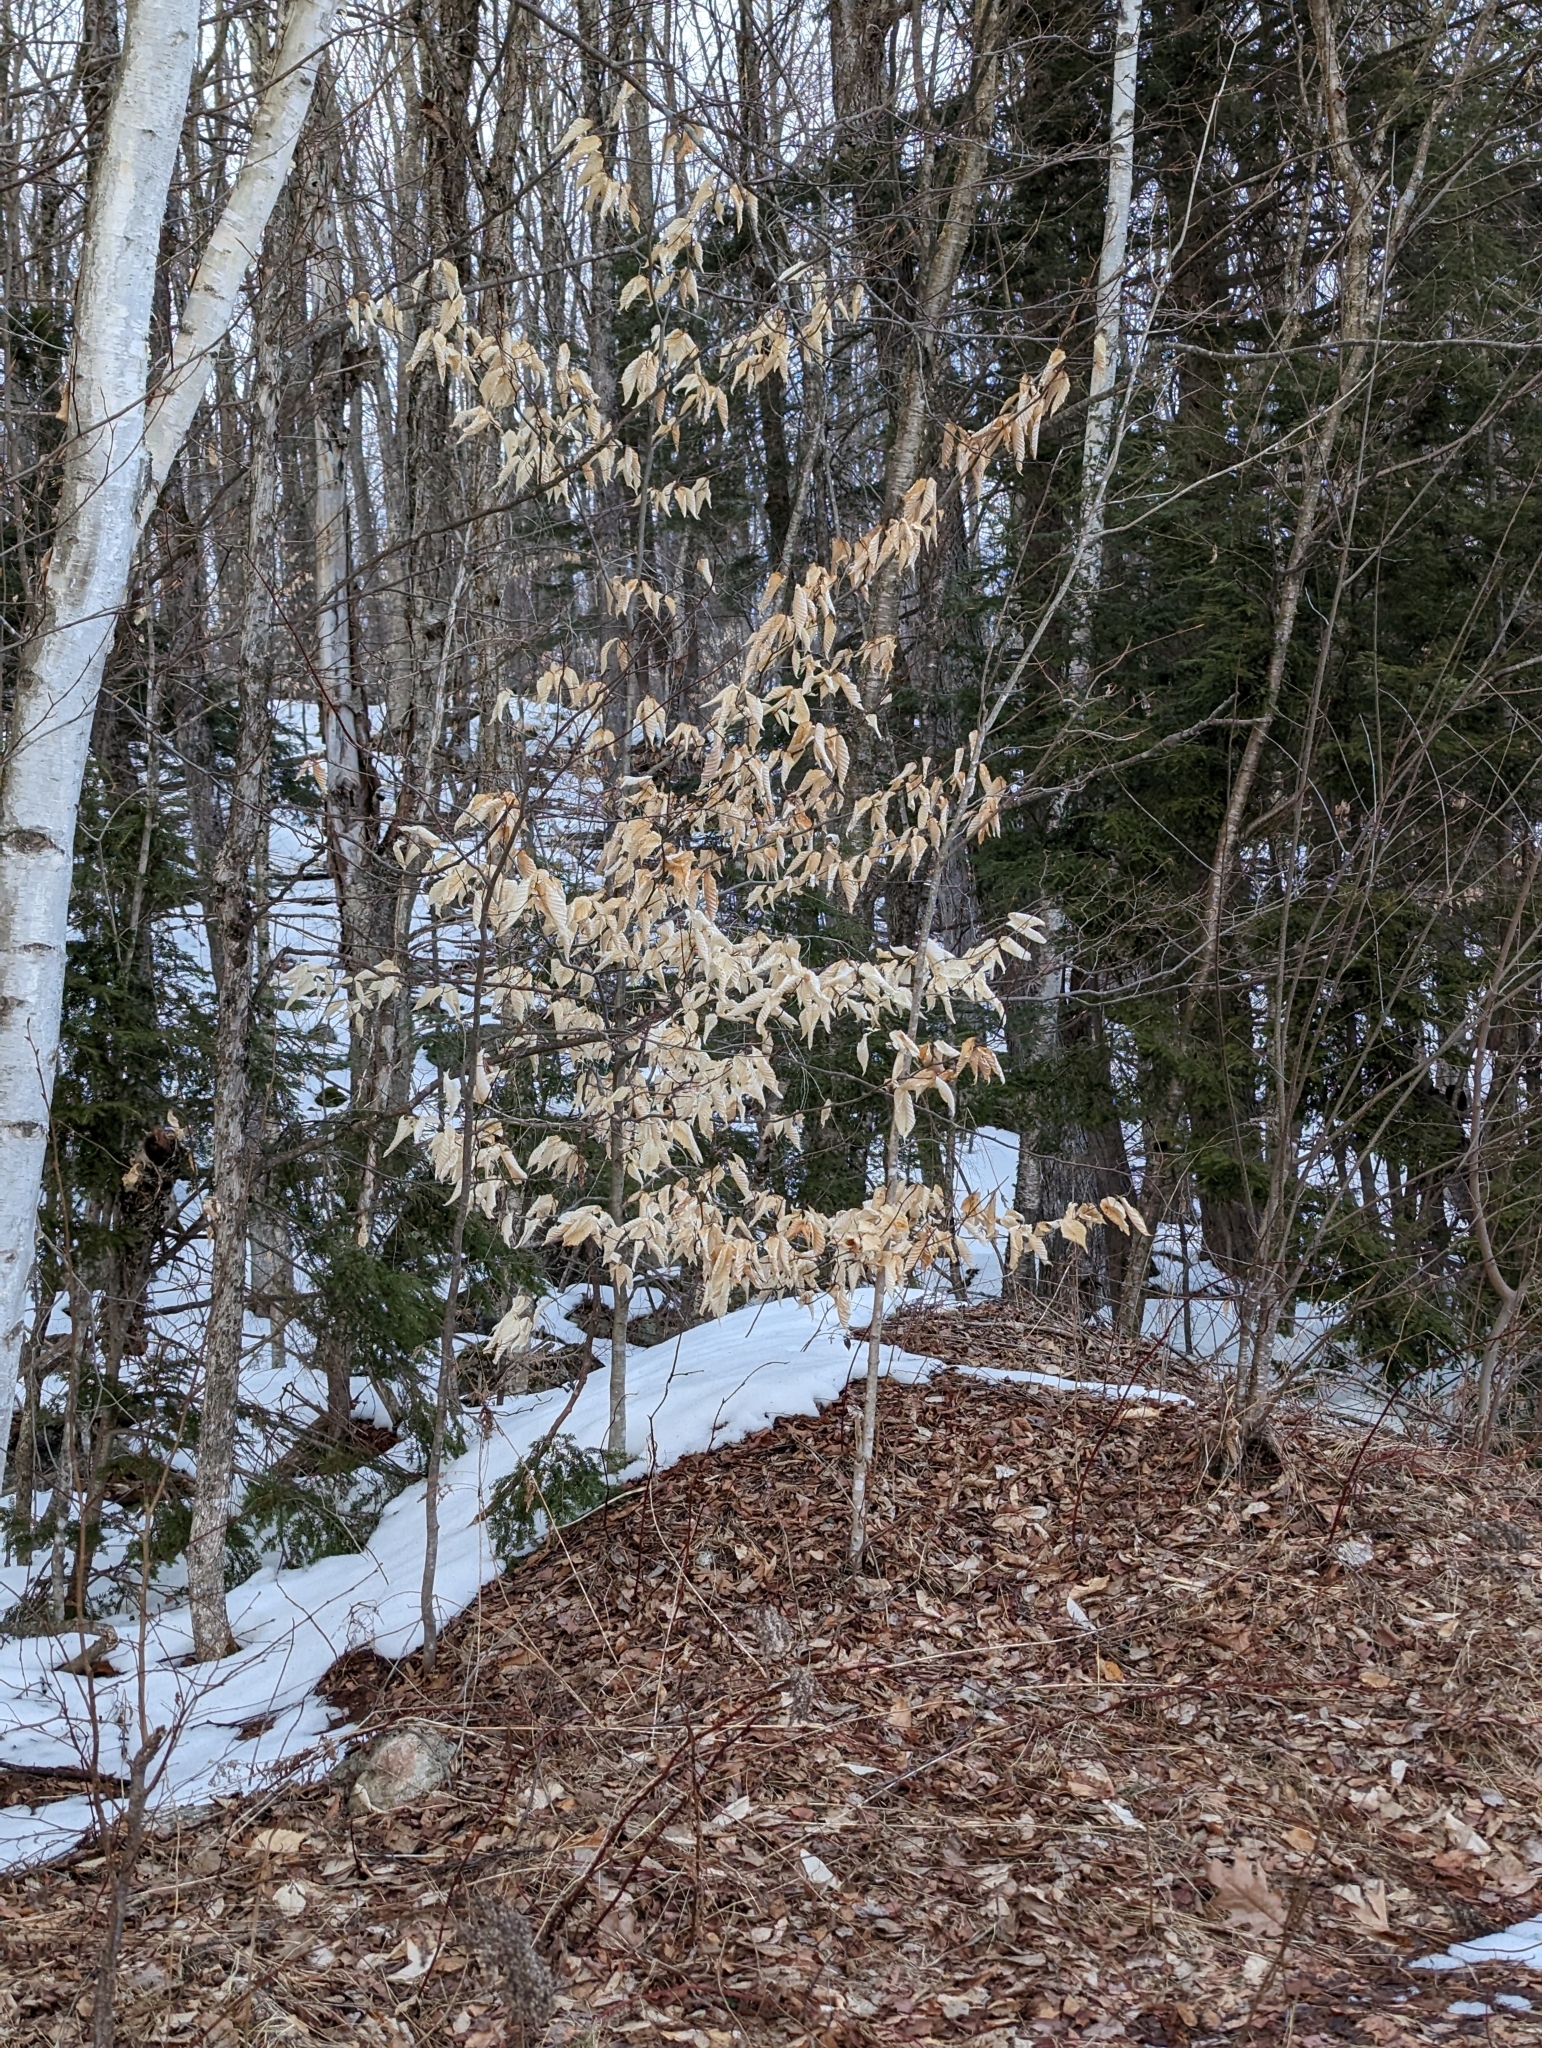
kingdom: Plantae
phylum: Tracheophyta
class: Magnoliopsida
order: Fagales
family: Fagaceae
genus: Fagus
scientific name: Fagus grandifolia
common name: American beech
